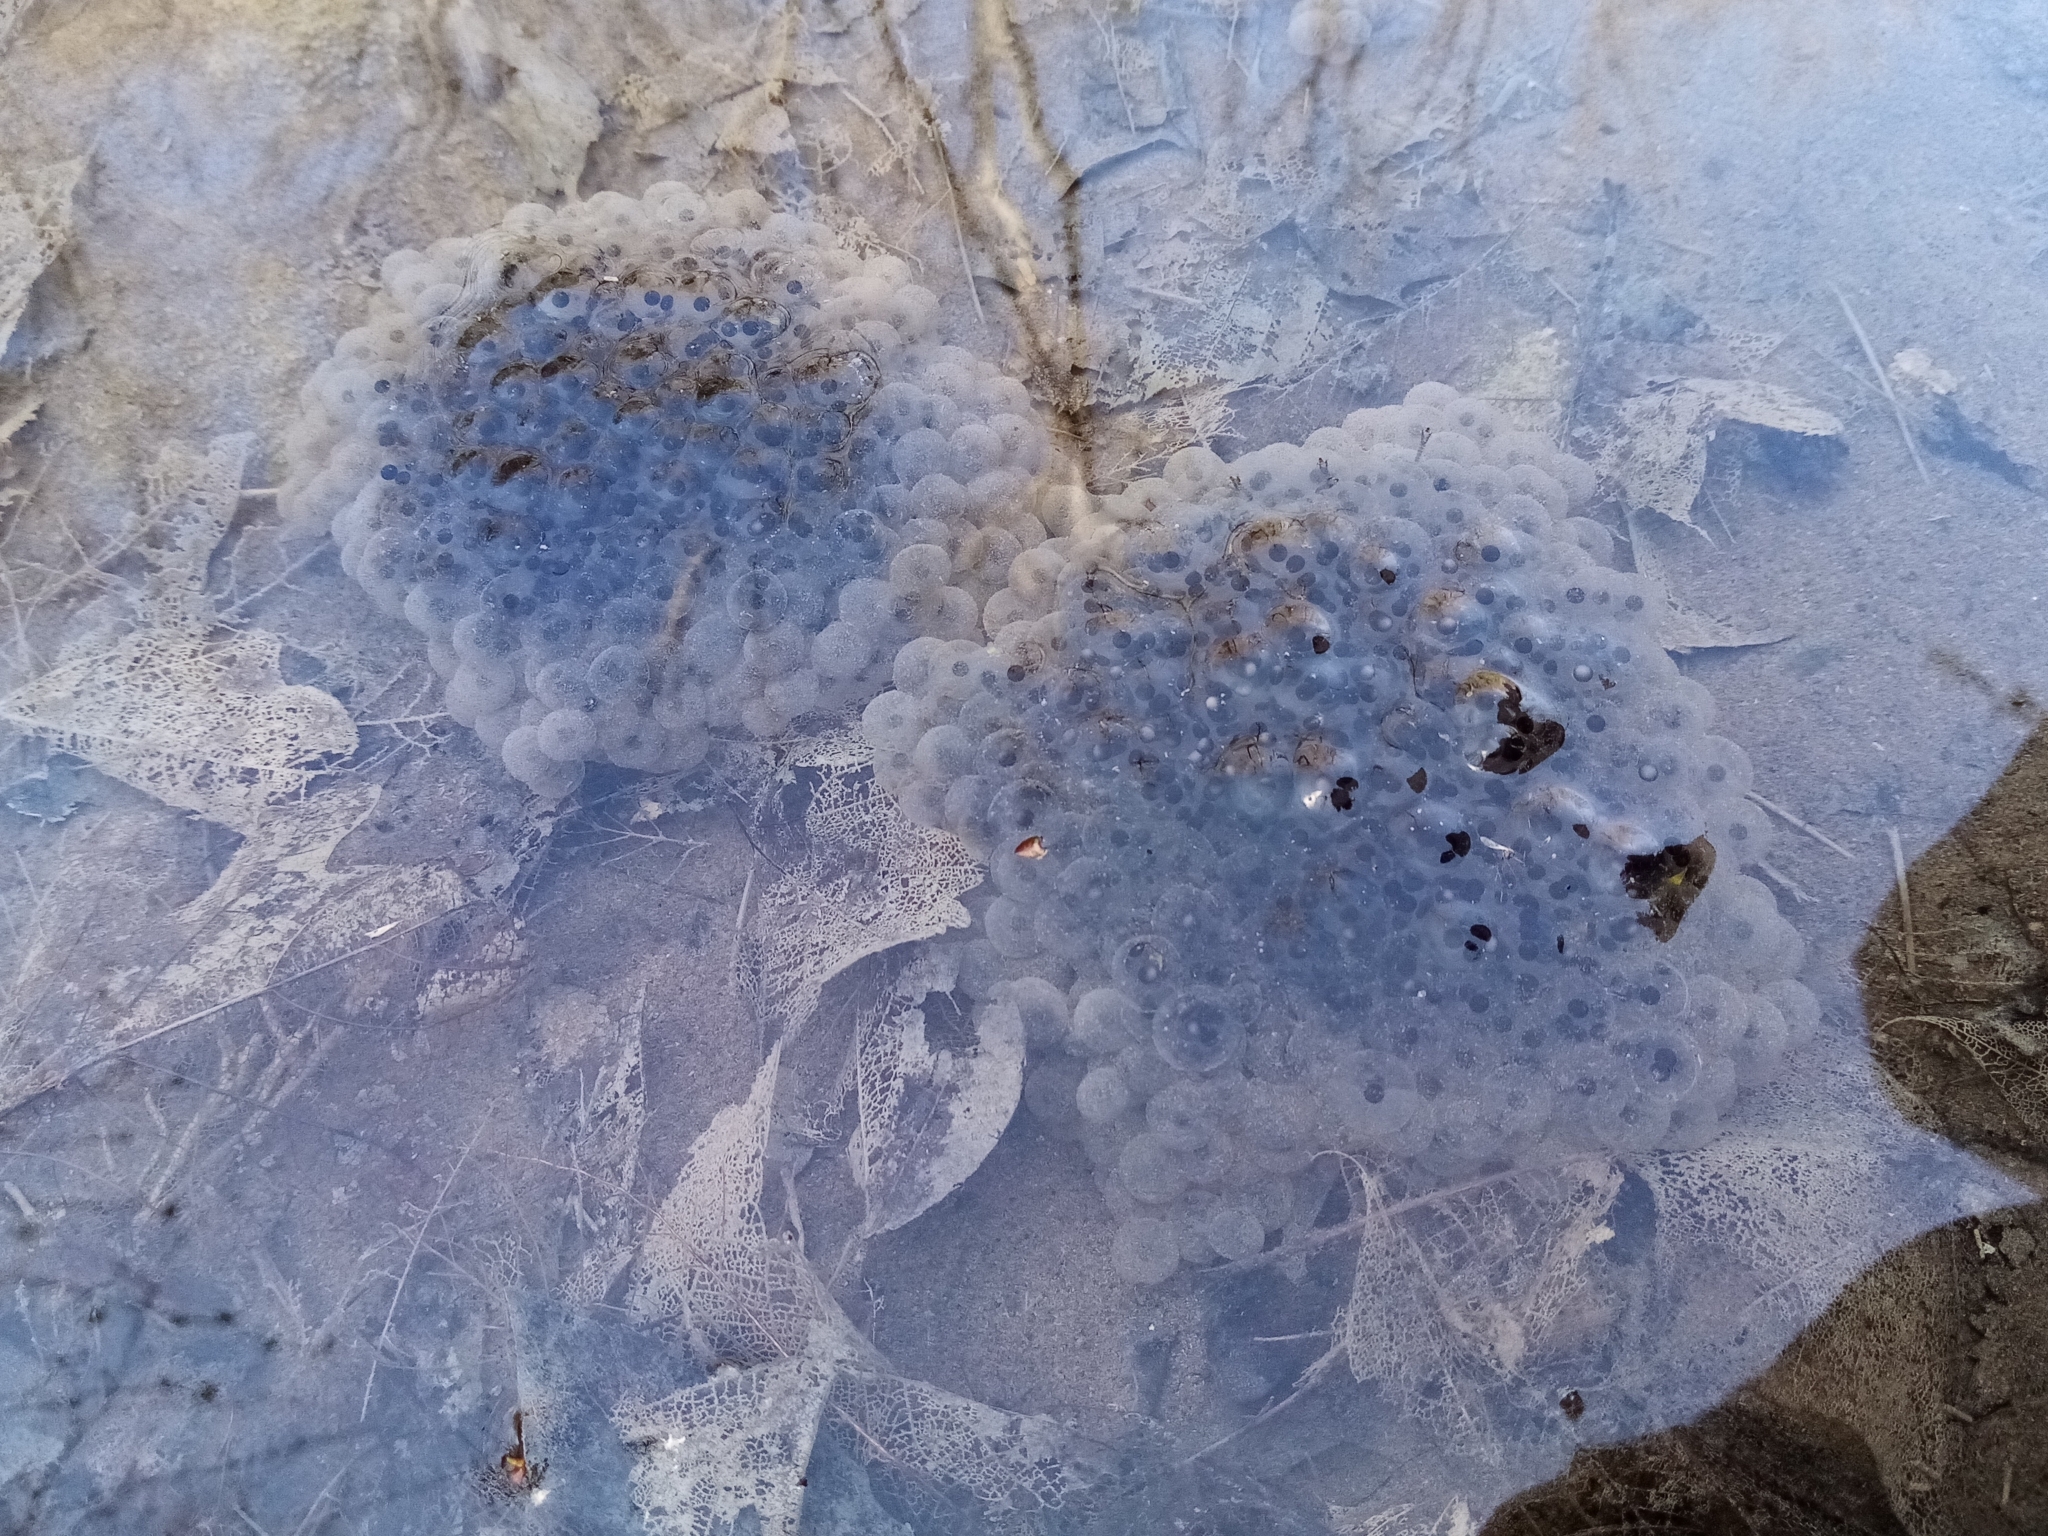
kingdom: Animalia
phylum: Chordata
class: Amphibia
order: Anura
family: Ranidae
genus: Rana
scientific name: Rana macrocnemis
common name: Banded frog
